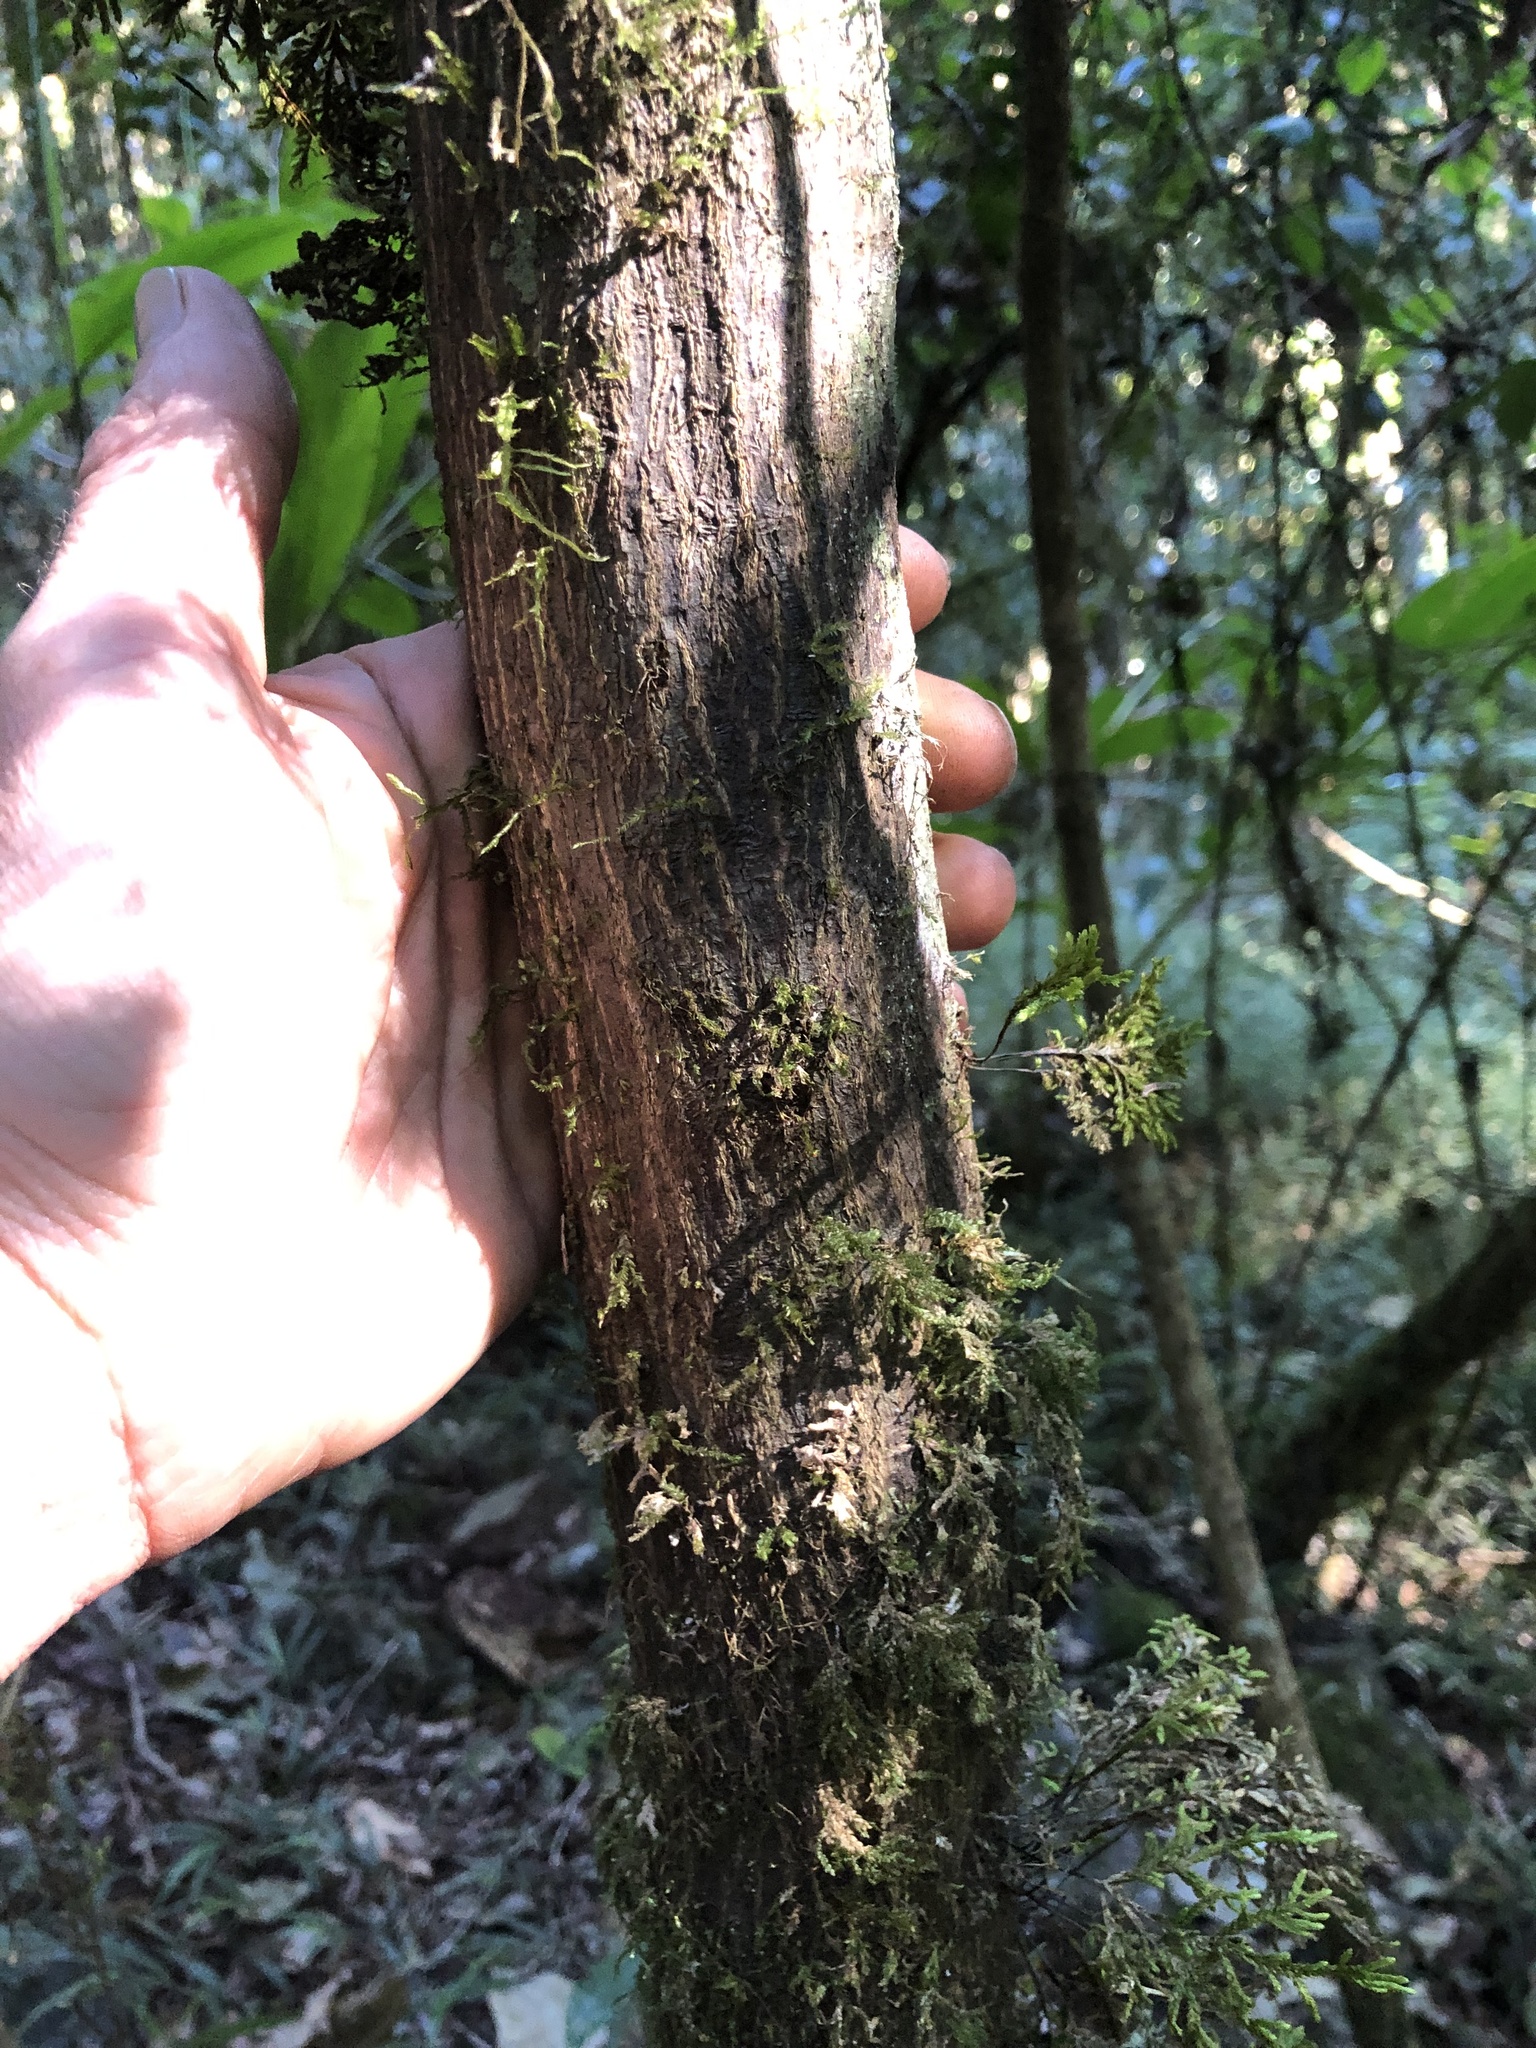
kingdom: Plantae
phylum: Tracheophyta
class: Magnoliopsida
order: Sapindales
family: Rutaceae
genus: Microcitrus
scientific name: Microcitrus australasica
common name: Australian finger-lime
